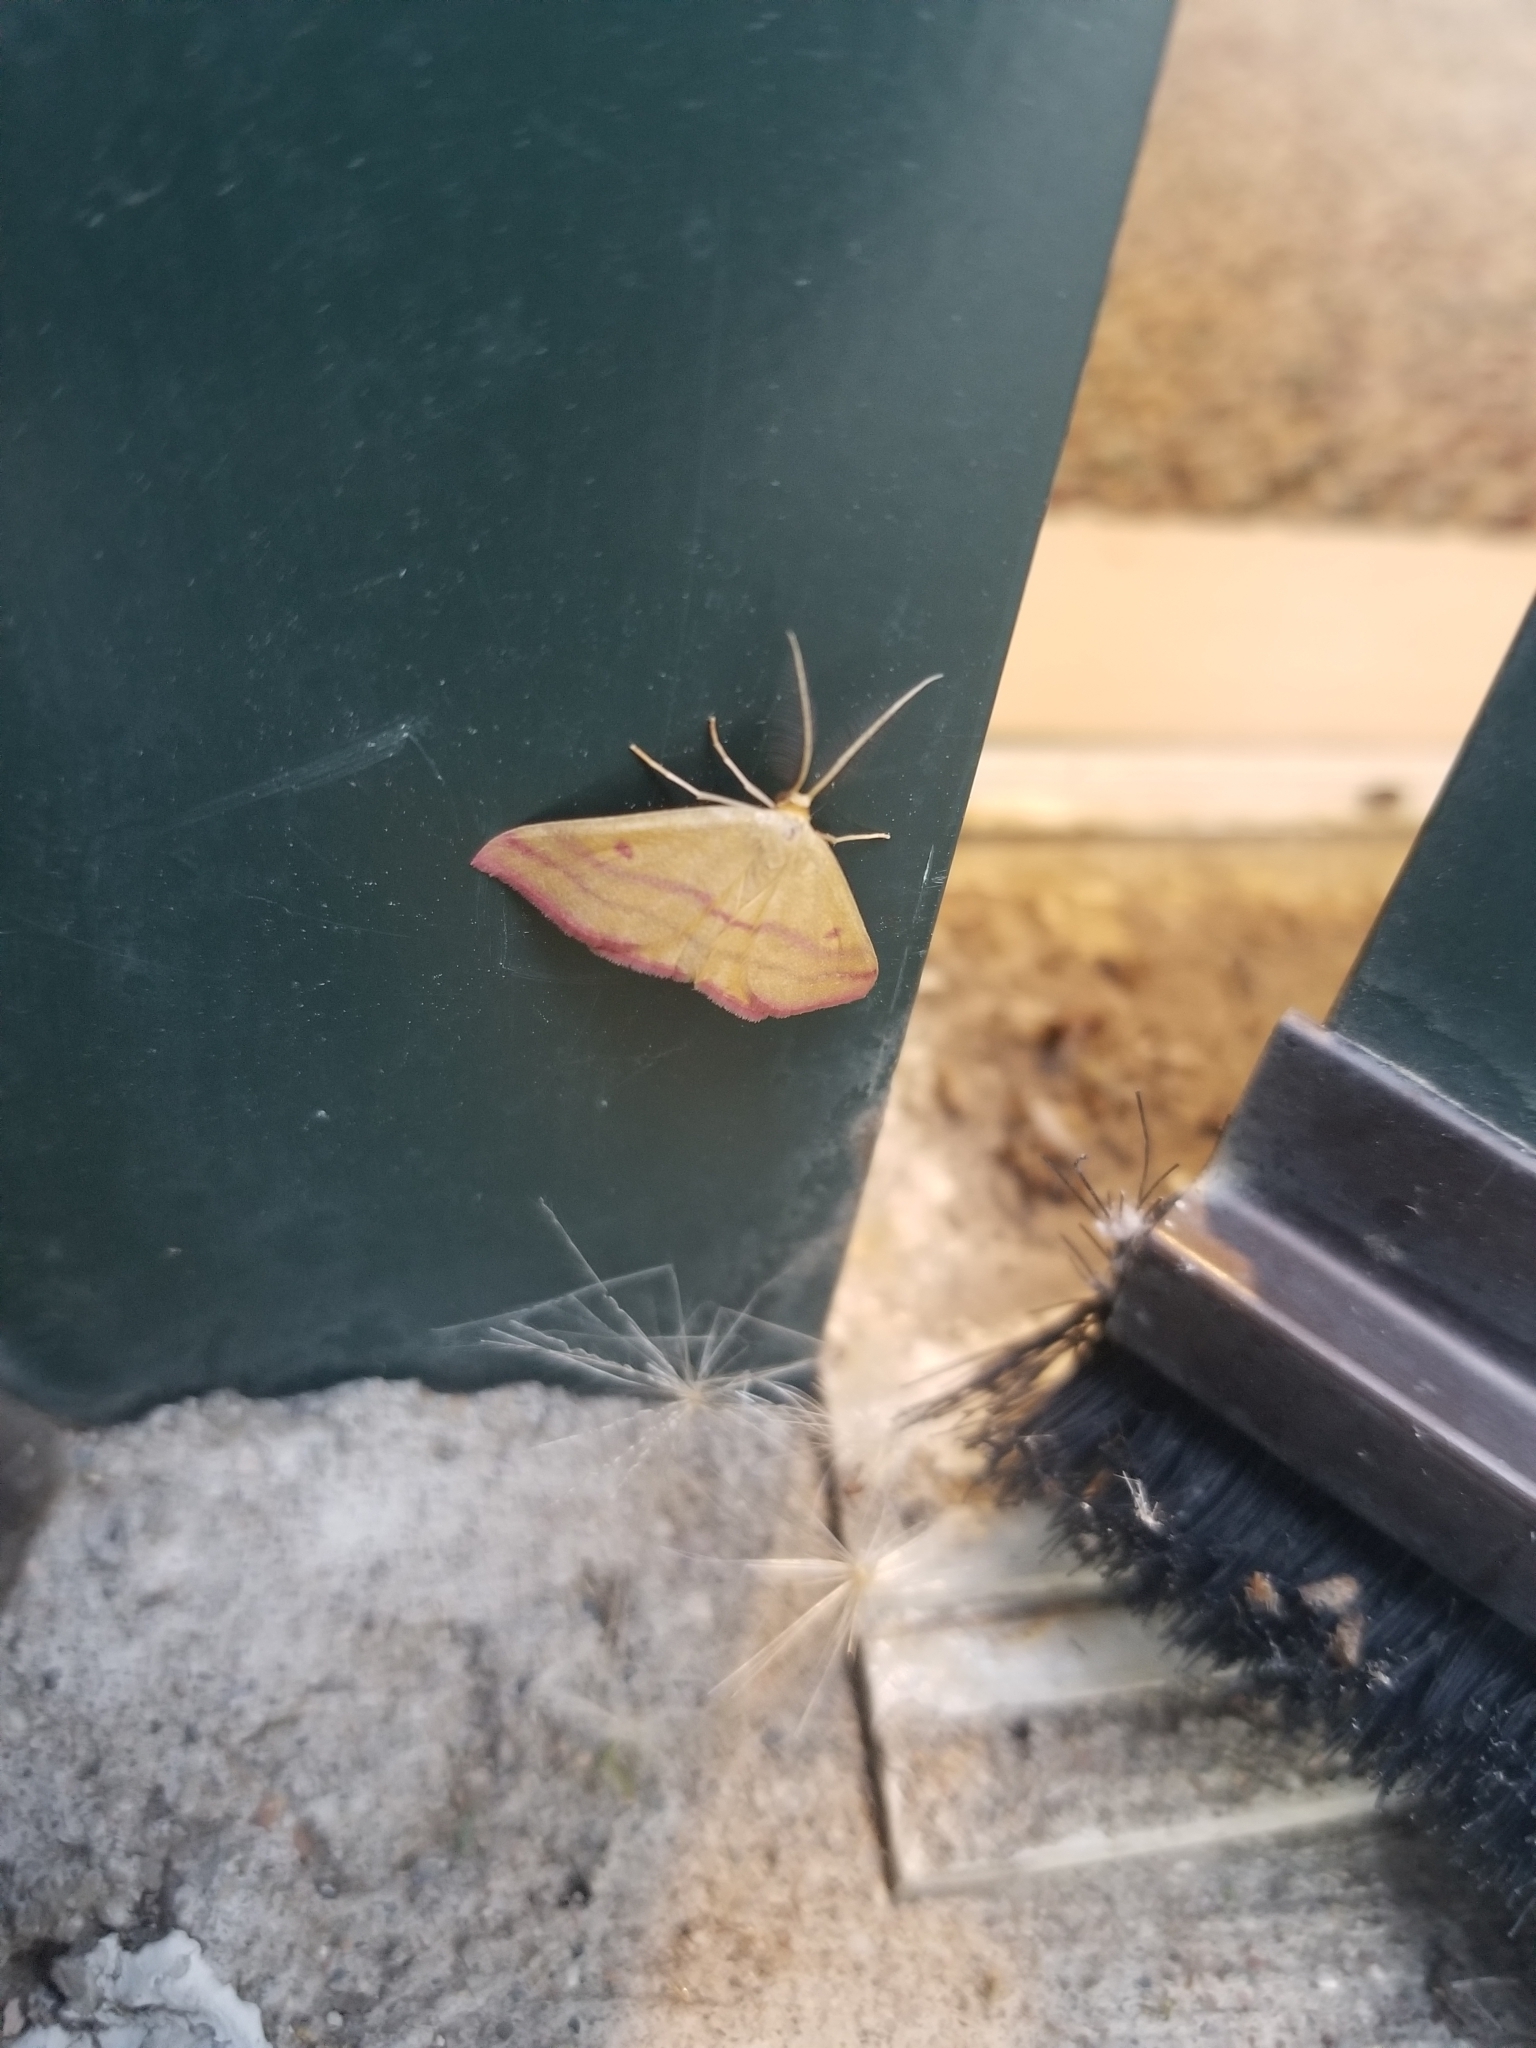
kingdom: Animalia
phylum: Arthropoda
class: Insecta
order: Lepidoptera
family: Geometridae
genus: Haematopis
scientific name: Haematopis grataria
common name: Chickweed geometer
